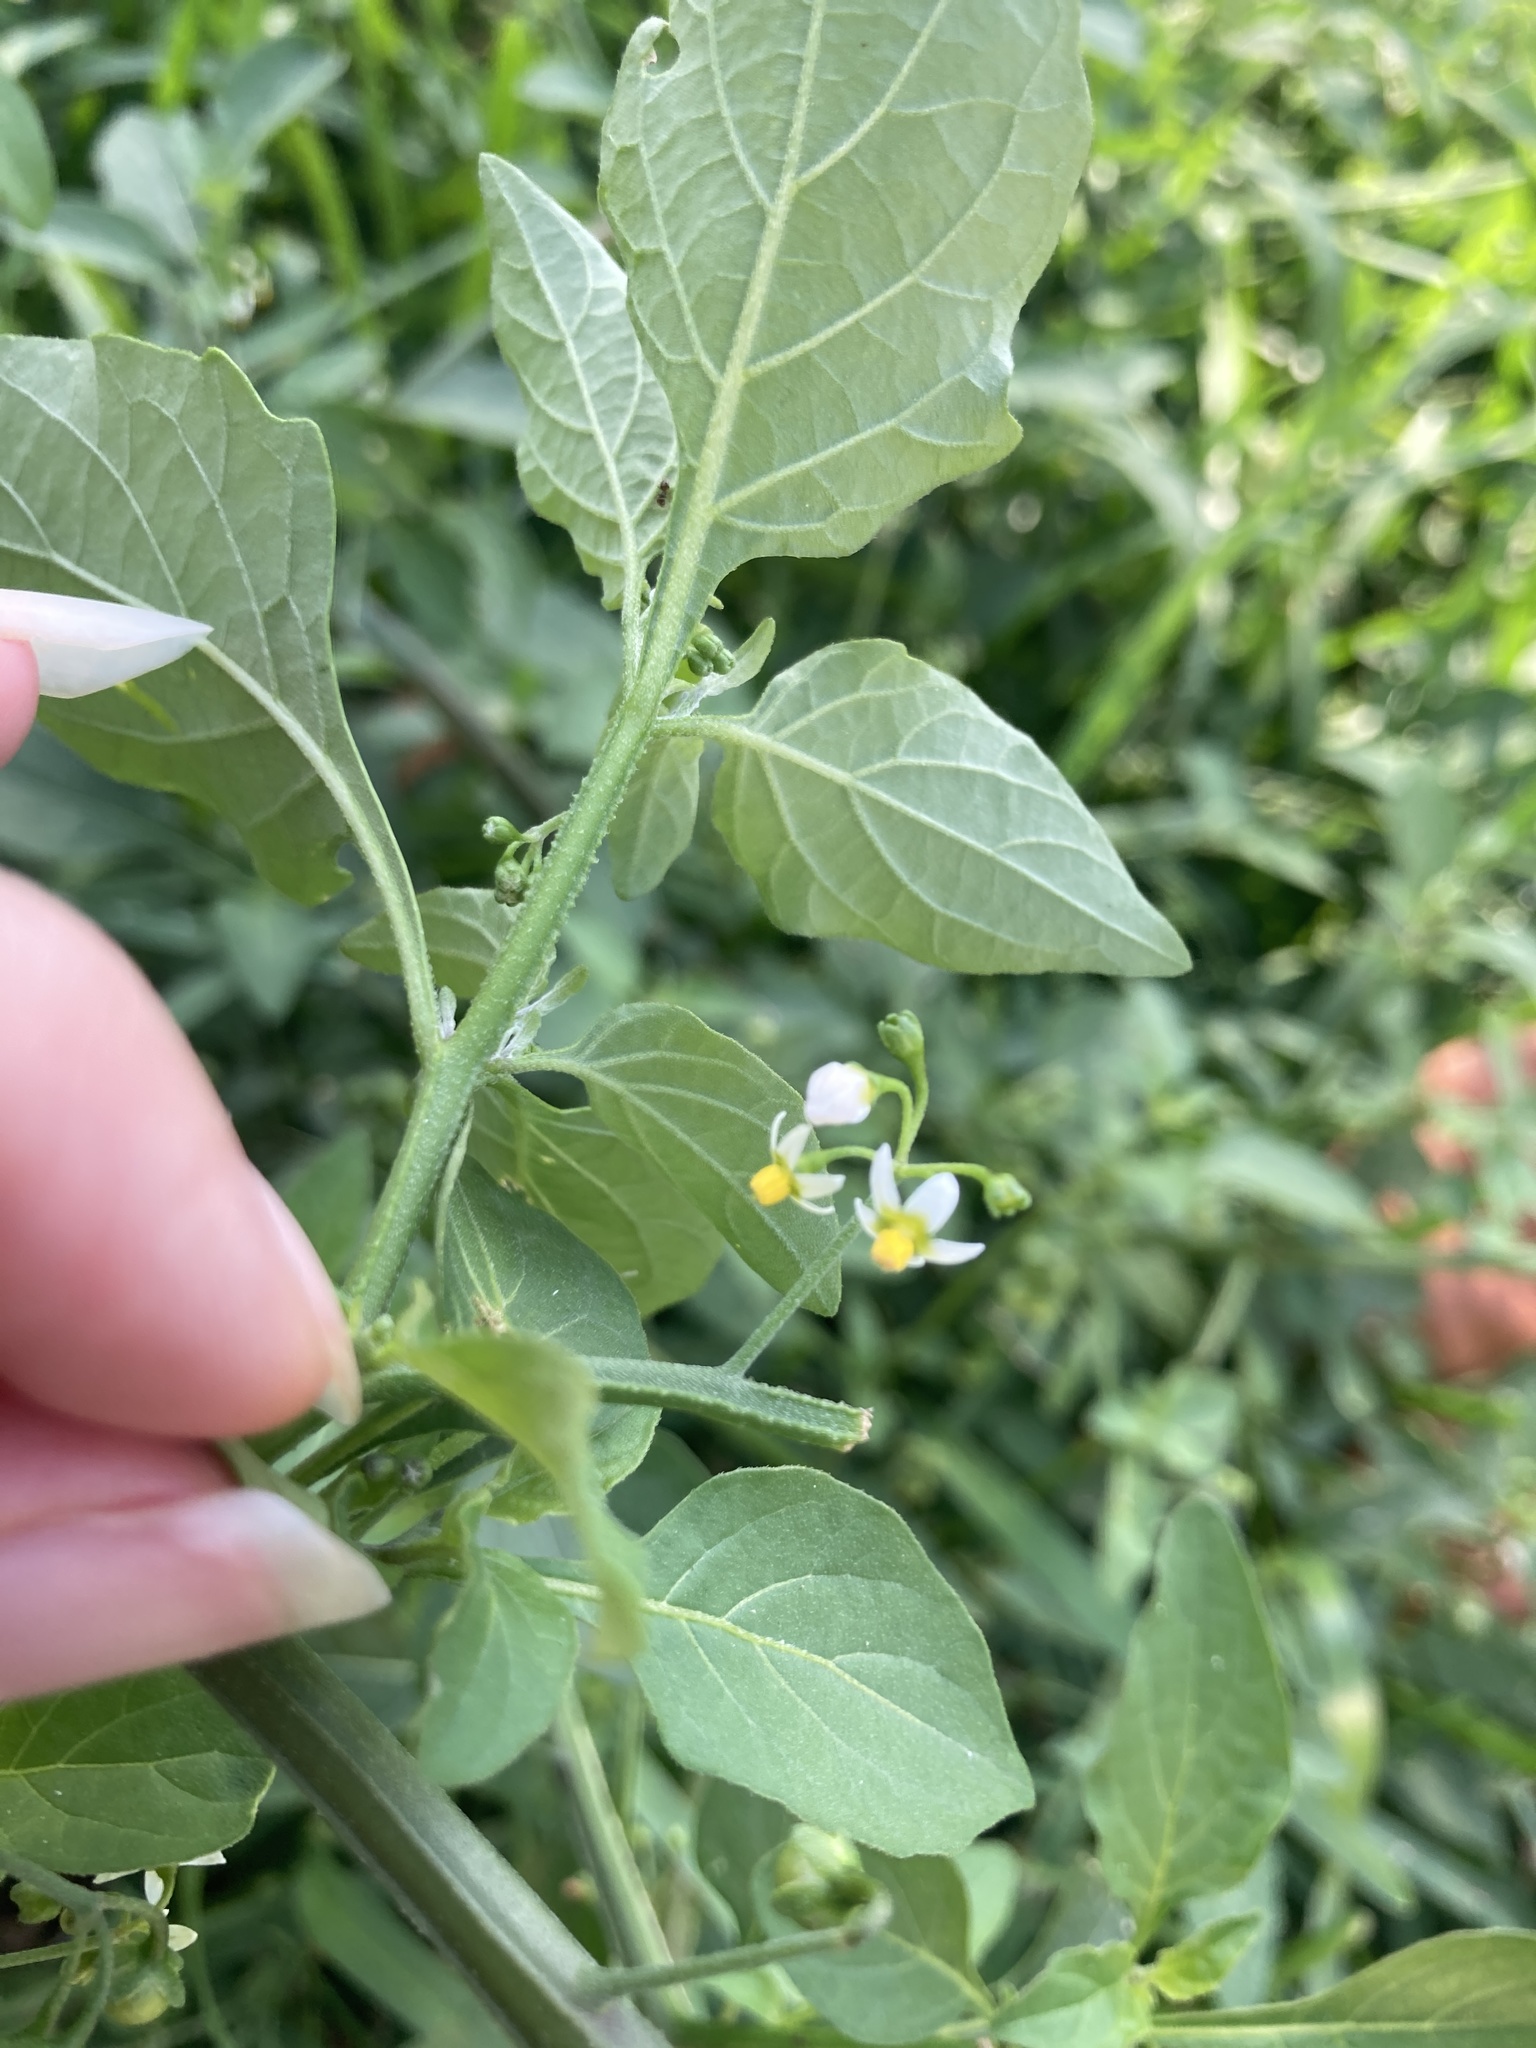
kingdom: Plantae
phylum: Tracheophyta
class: Magnoliopsida
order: Solanales
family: Solanaceae
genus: Solanum
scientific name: Solanum americanum
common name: American black nightshade
